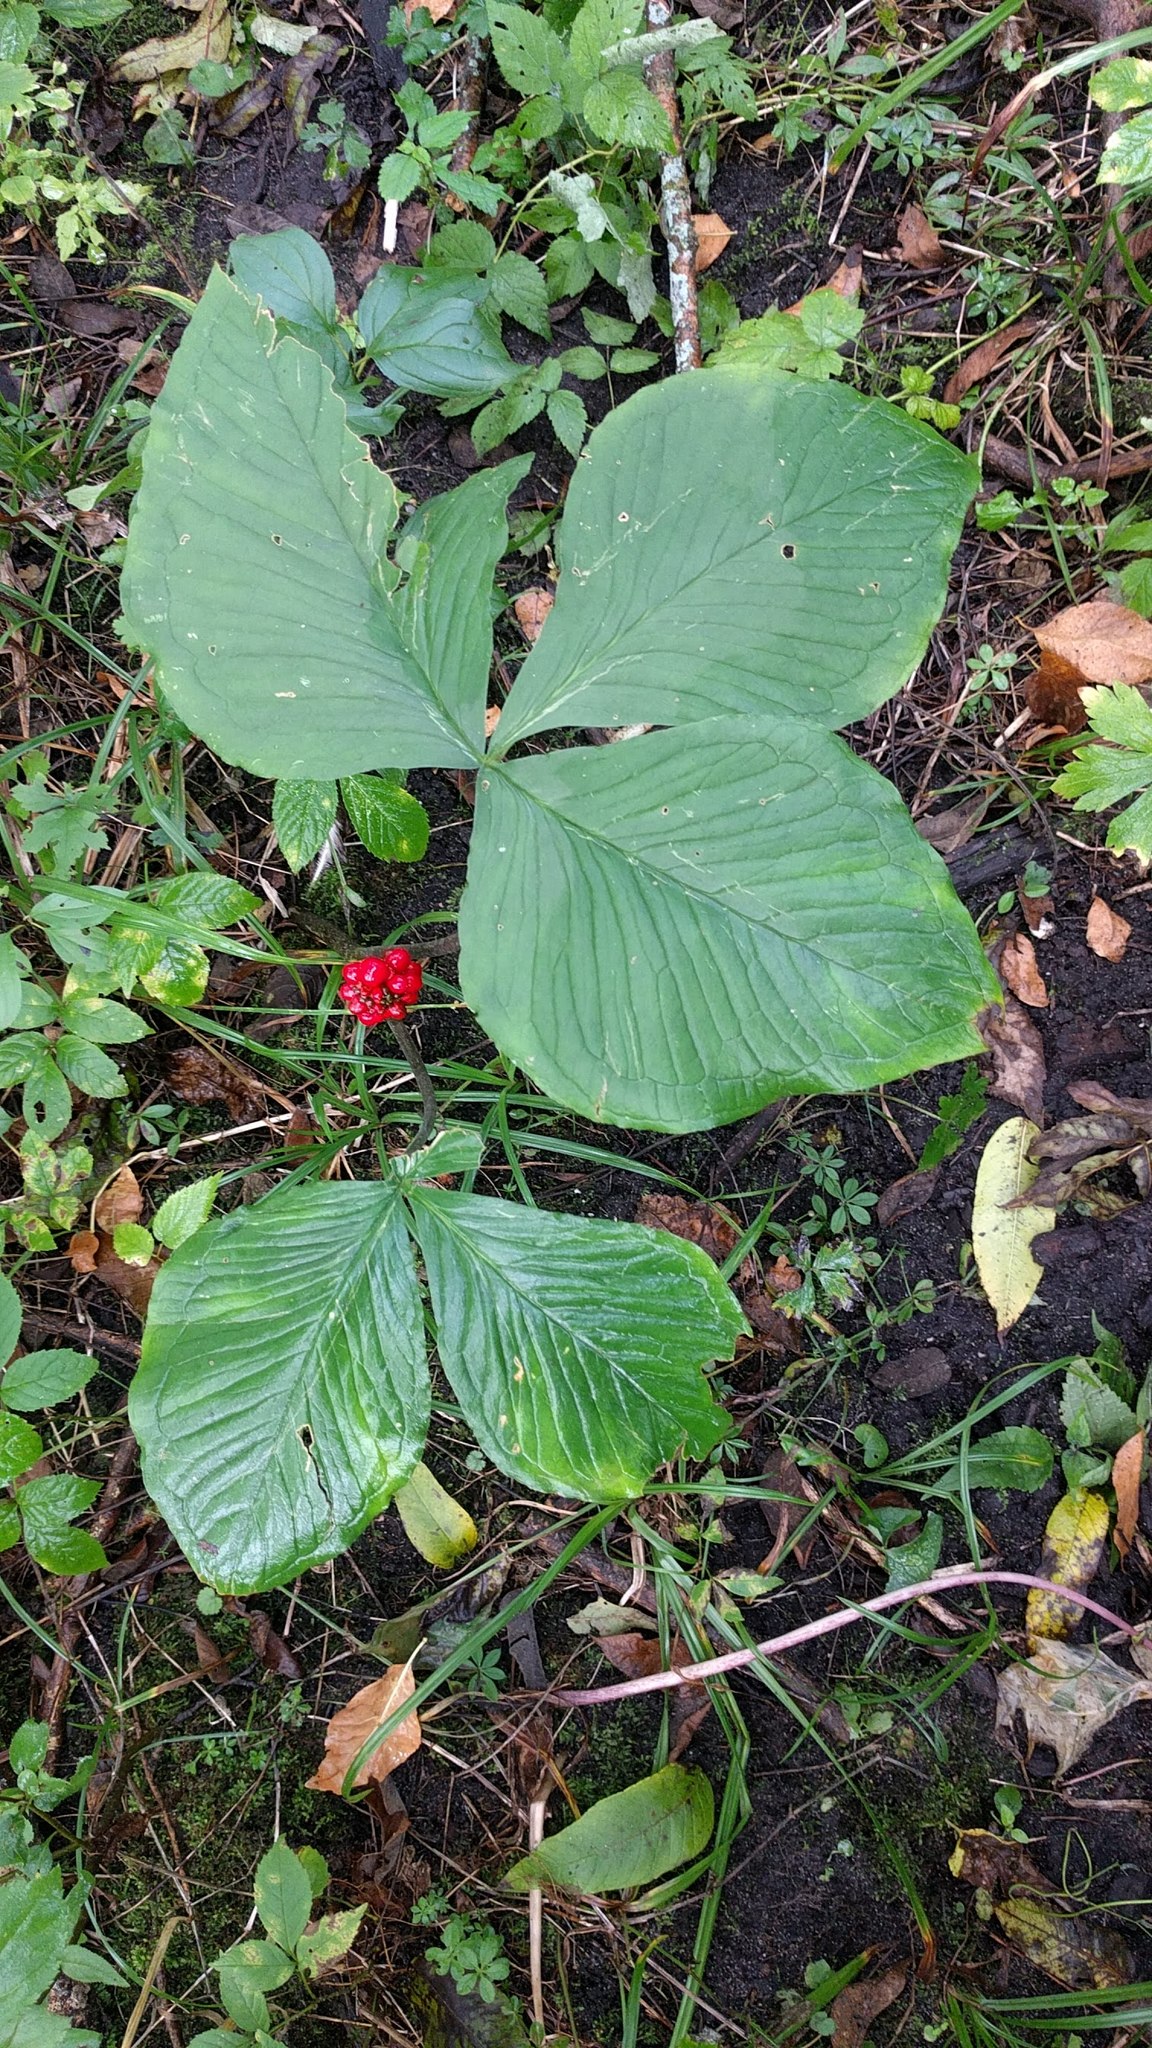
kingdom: Plantae
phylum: Tracheophyta
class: Liliopsida
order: Alismatales
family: Araceae
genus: Arisaema
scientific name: Arisaema triphyllum
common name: Jack-in-the-pulpit
